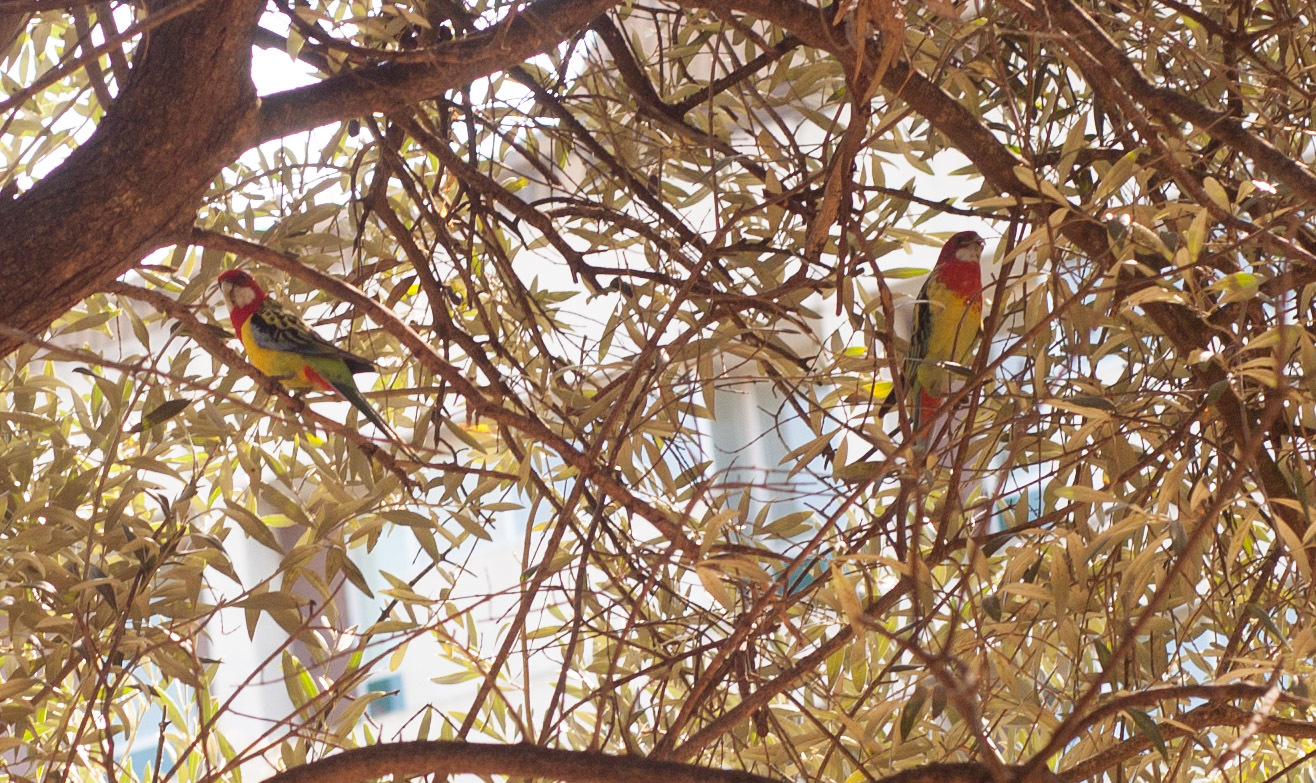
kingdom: Animalia
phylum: Chordata
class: Aves
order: Psittaciformes
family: Psittacidae
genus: Platycercus
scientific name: Platycercus eximius
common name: Eastern rosella
